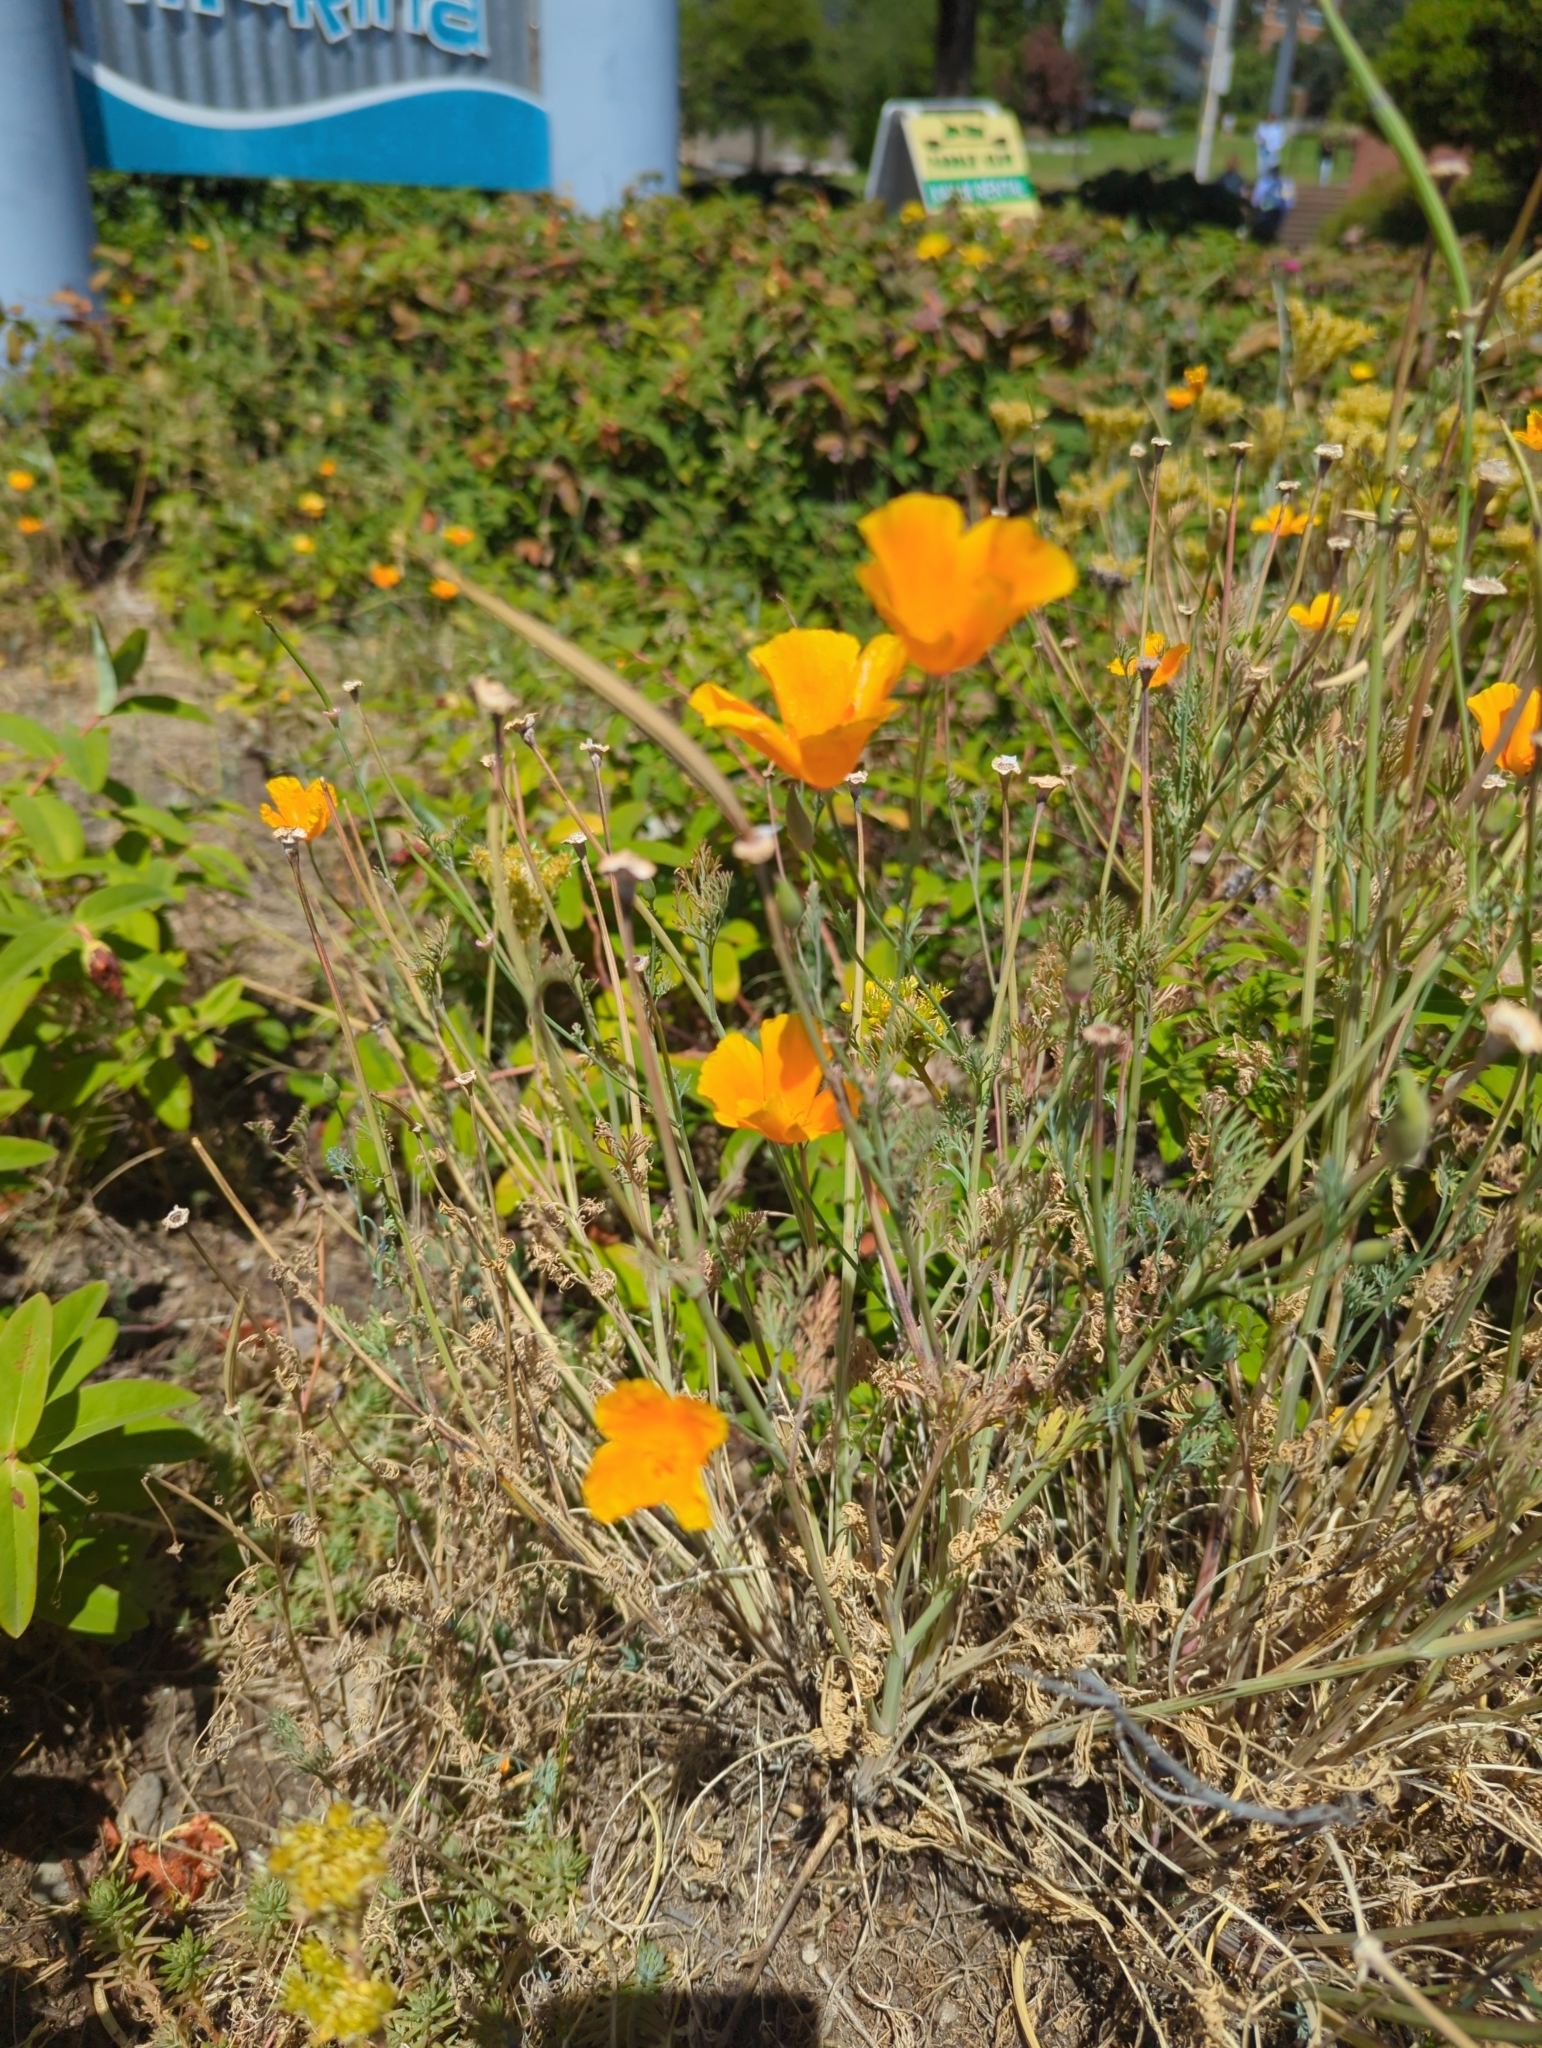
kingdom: Plantae
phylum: Tracheophyta
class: Magnoliopsida
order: Ranunculales
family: Papaveraceae
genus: Eschscholzia
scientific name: Eschscholzia californica
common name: California poppy
